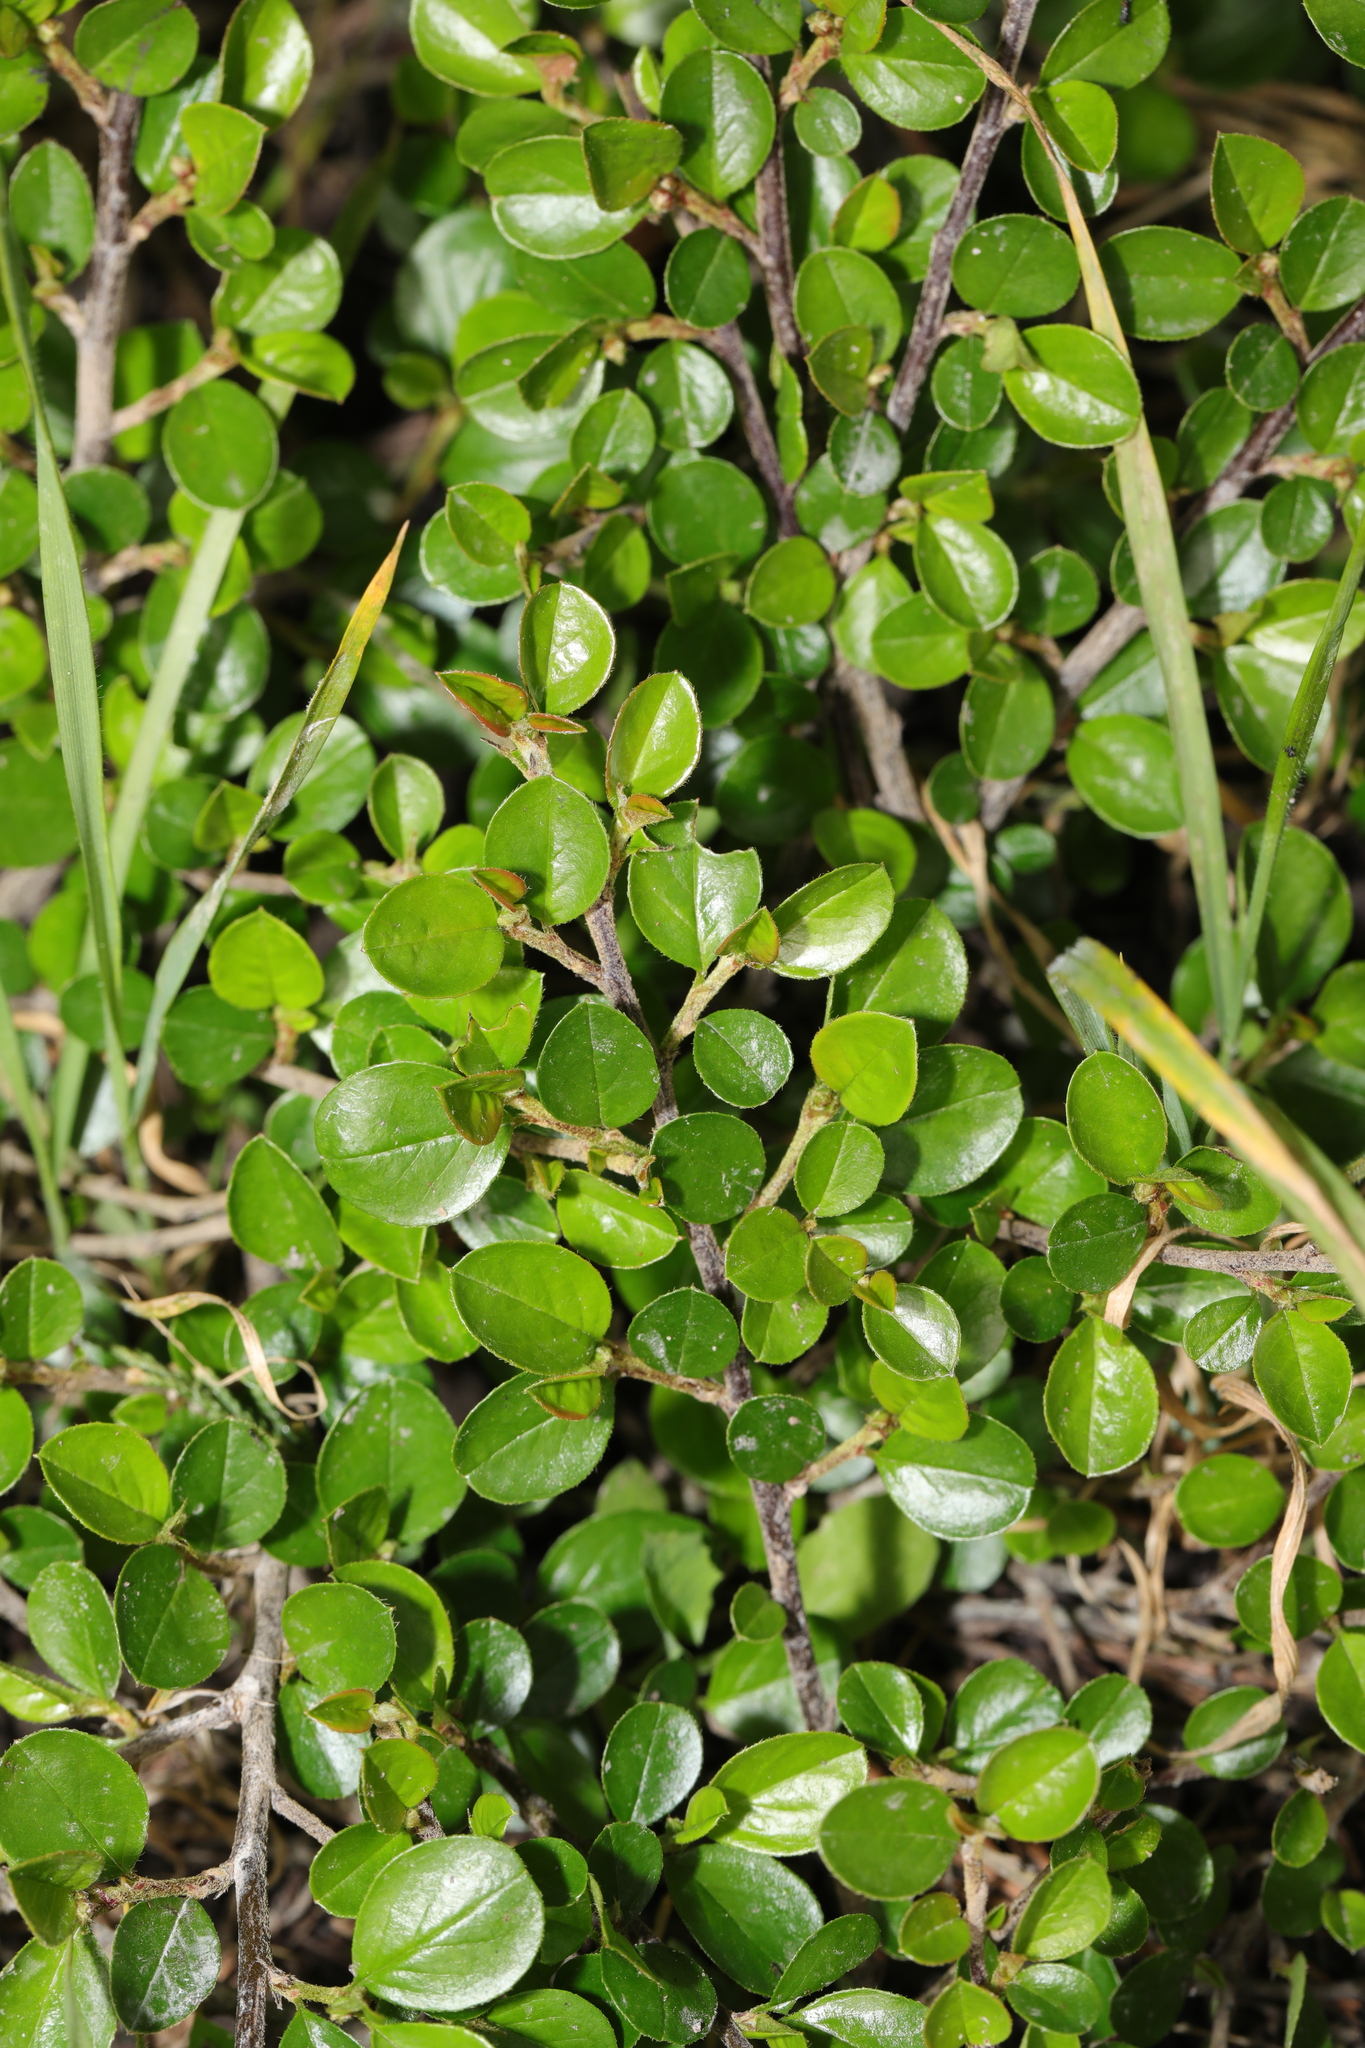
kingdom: Plantae
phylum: Tracheophyta
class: Magnoliopsida
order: Rosales
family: Rosaceae
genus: Cotoneaster
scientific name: Cotoneaster hjelmqvistii
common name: Hjelmqvist's cotoneaster
